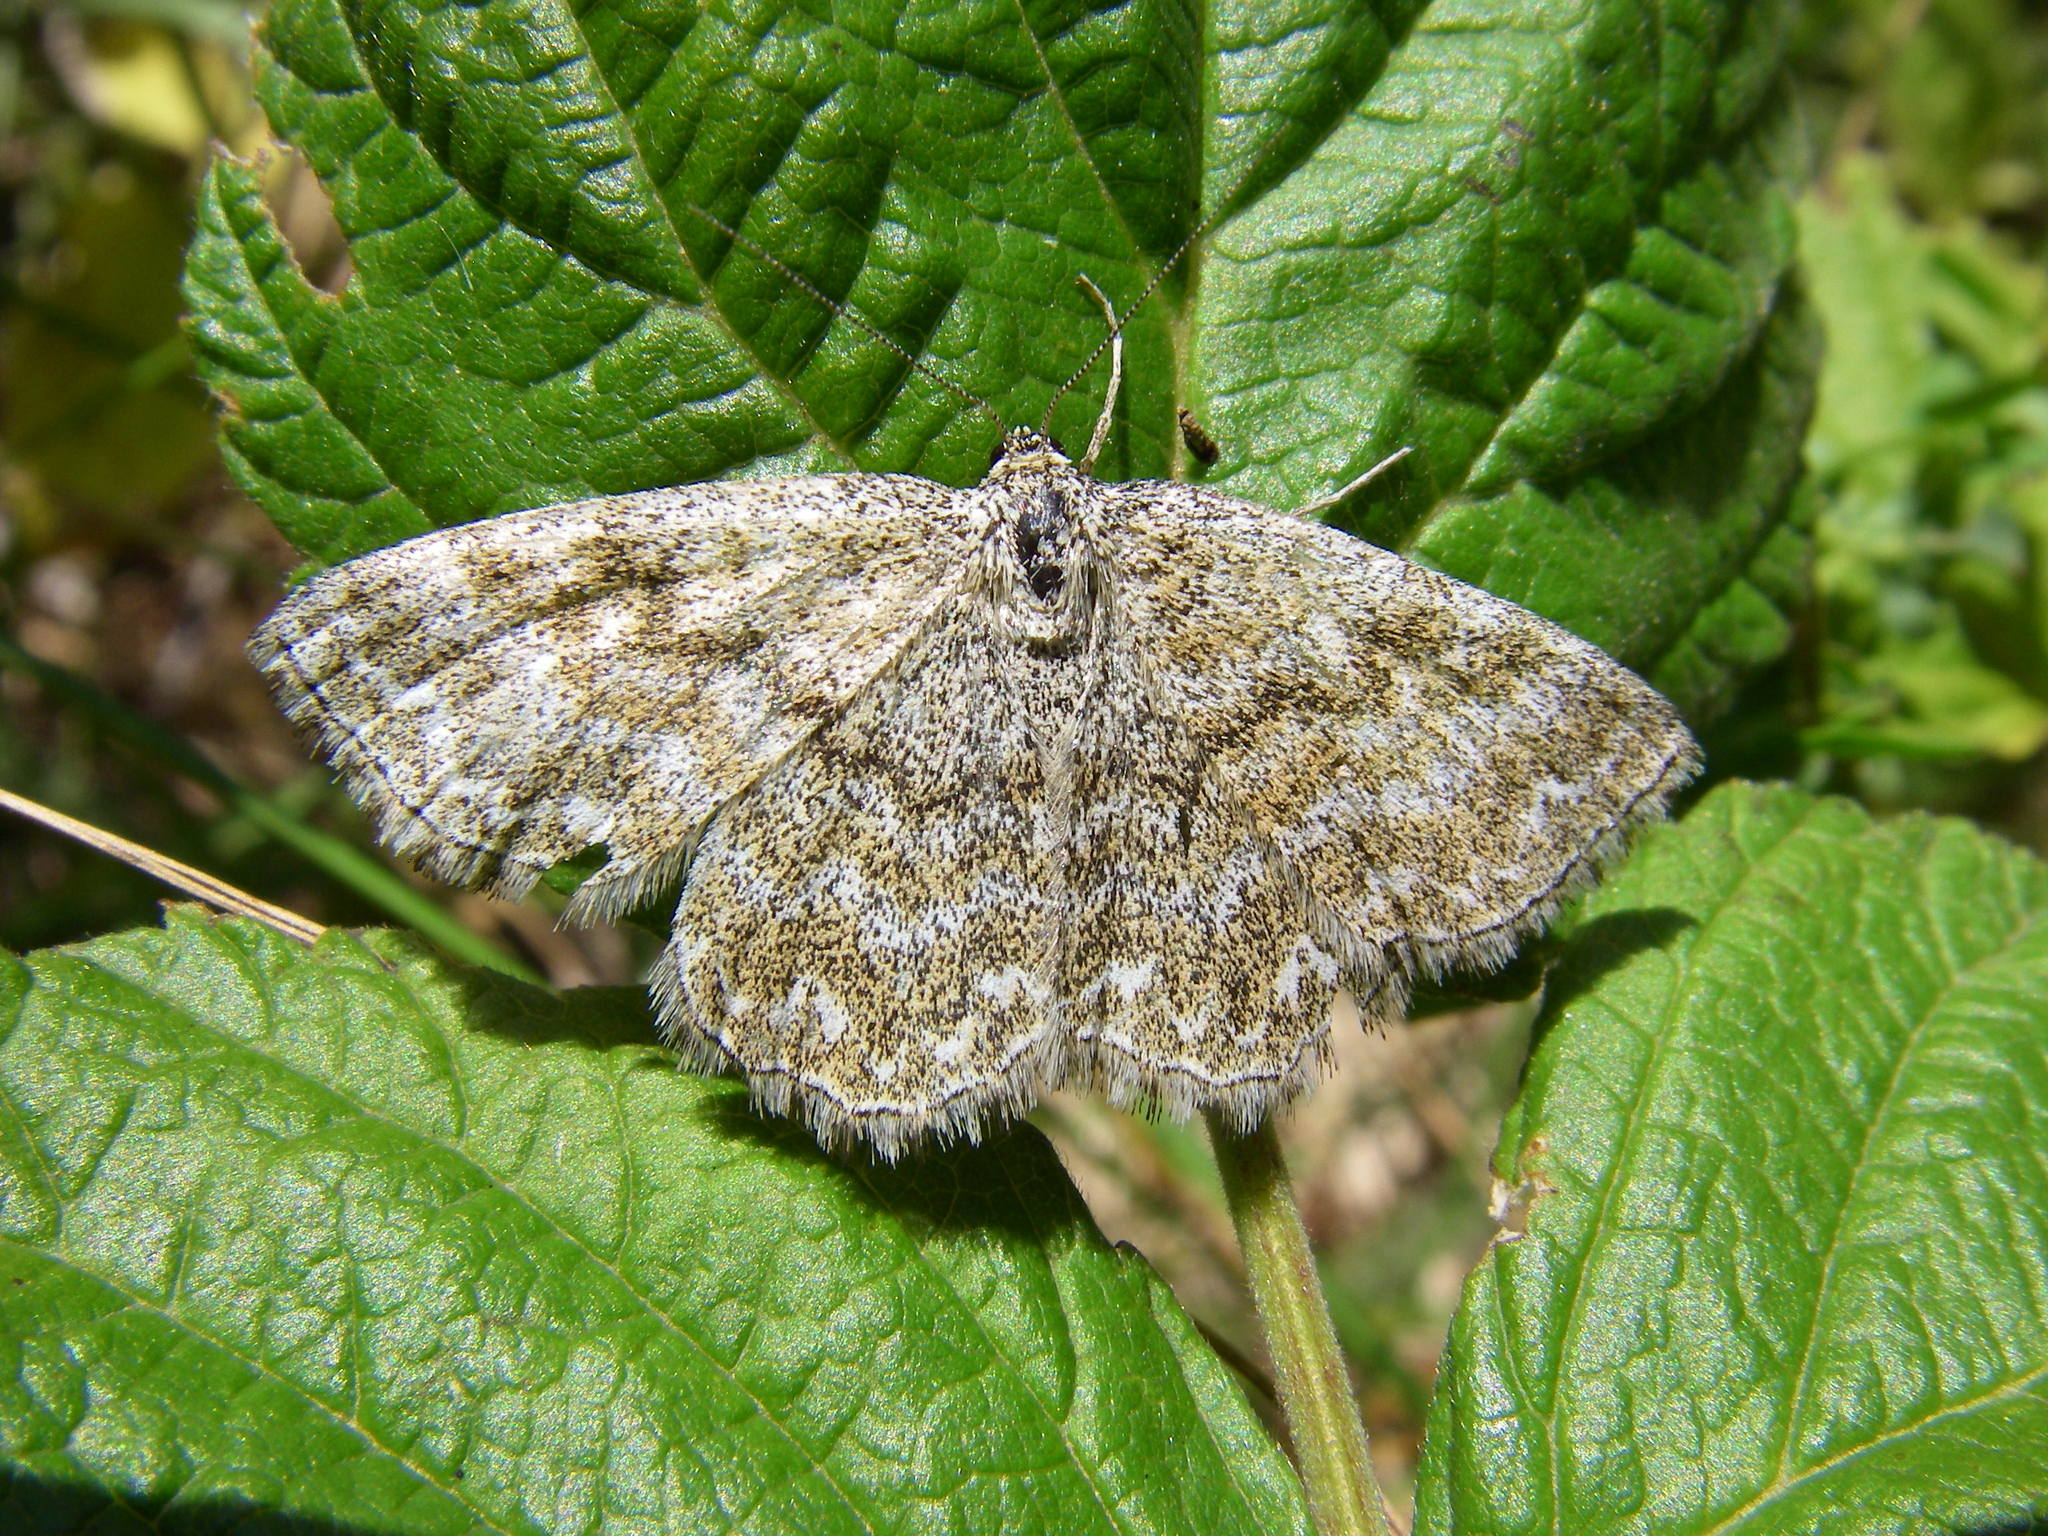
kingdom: Animalia
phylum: Arthropoda
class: Insecta
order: Lepidoptera
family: Geometridae
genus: Scopula
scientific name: Scopula immorata
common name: Lewes wave
